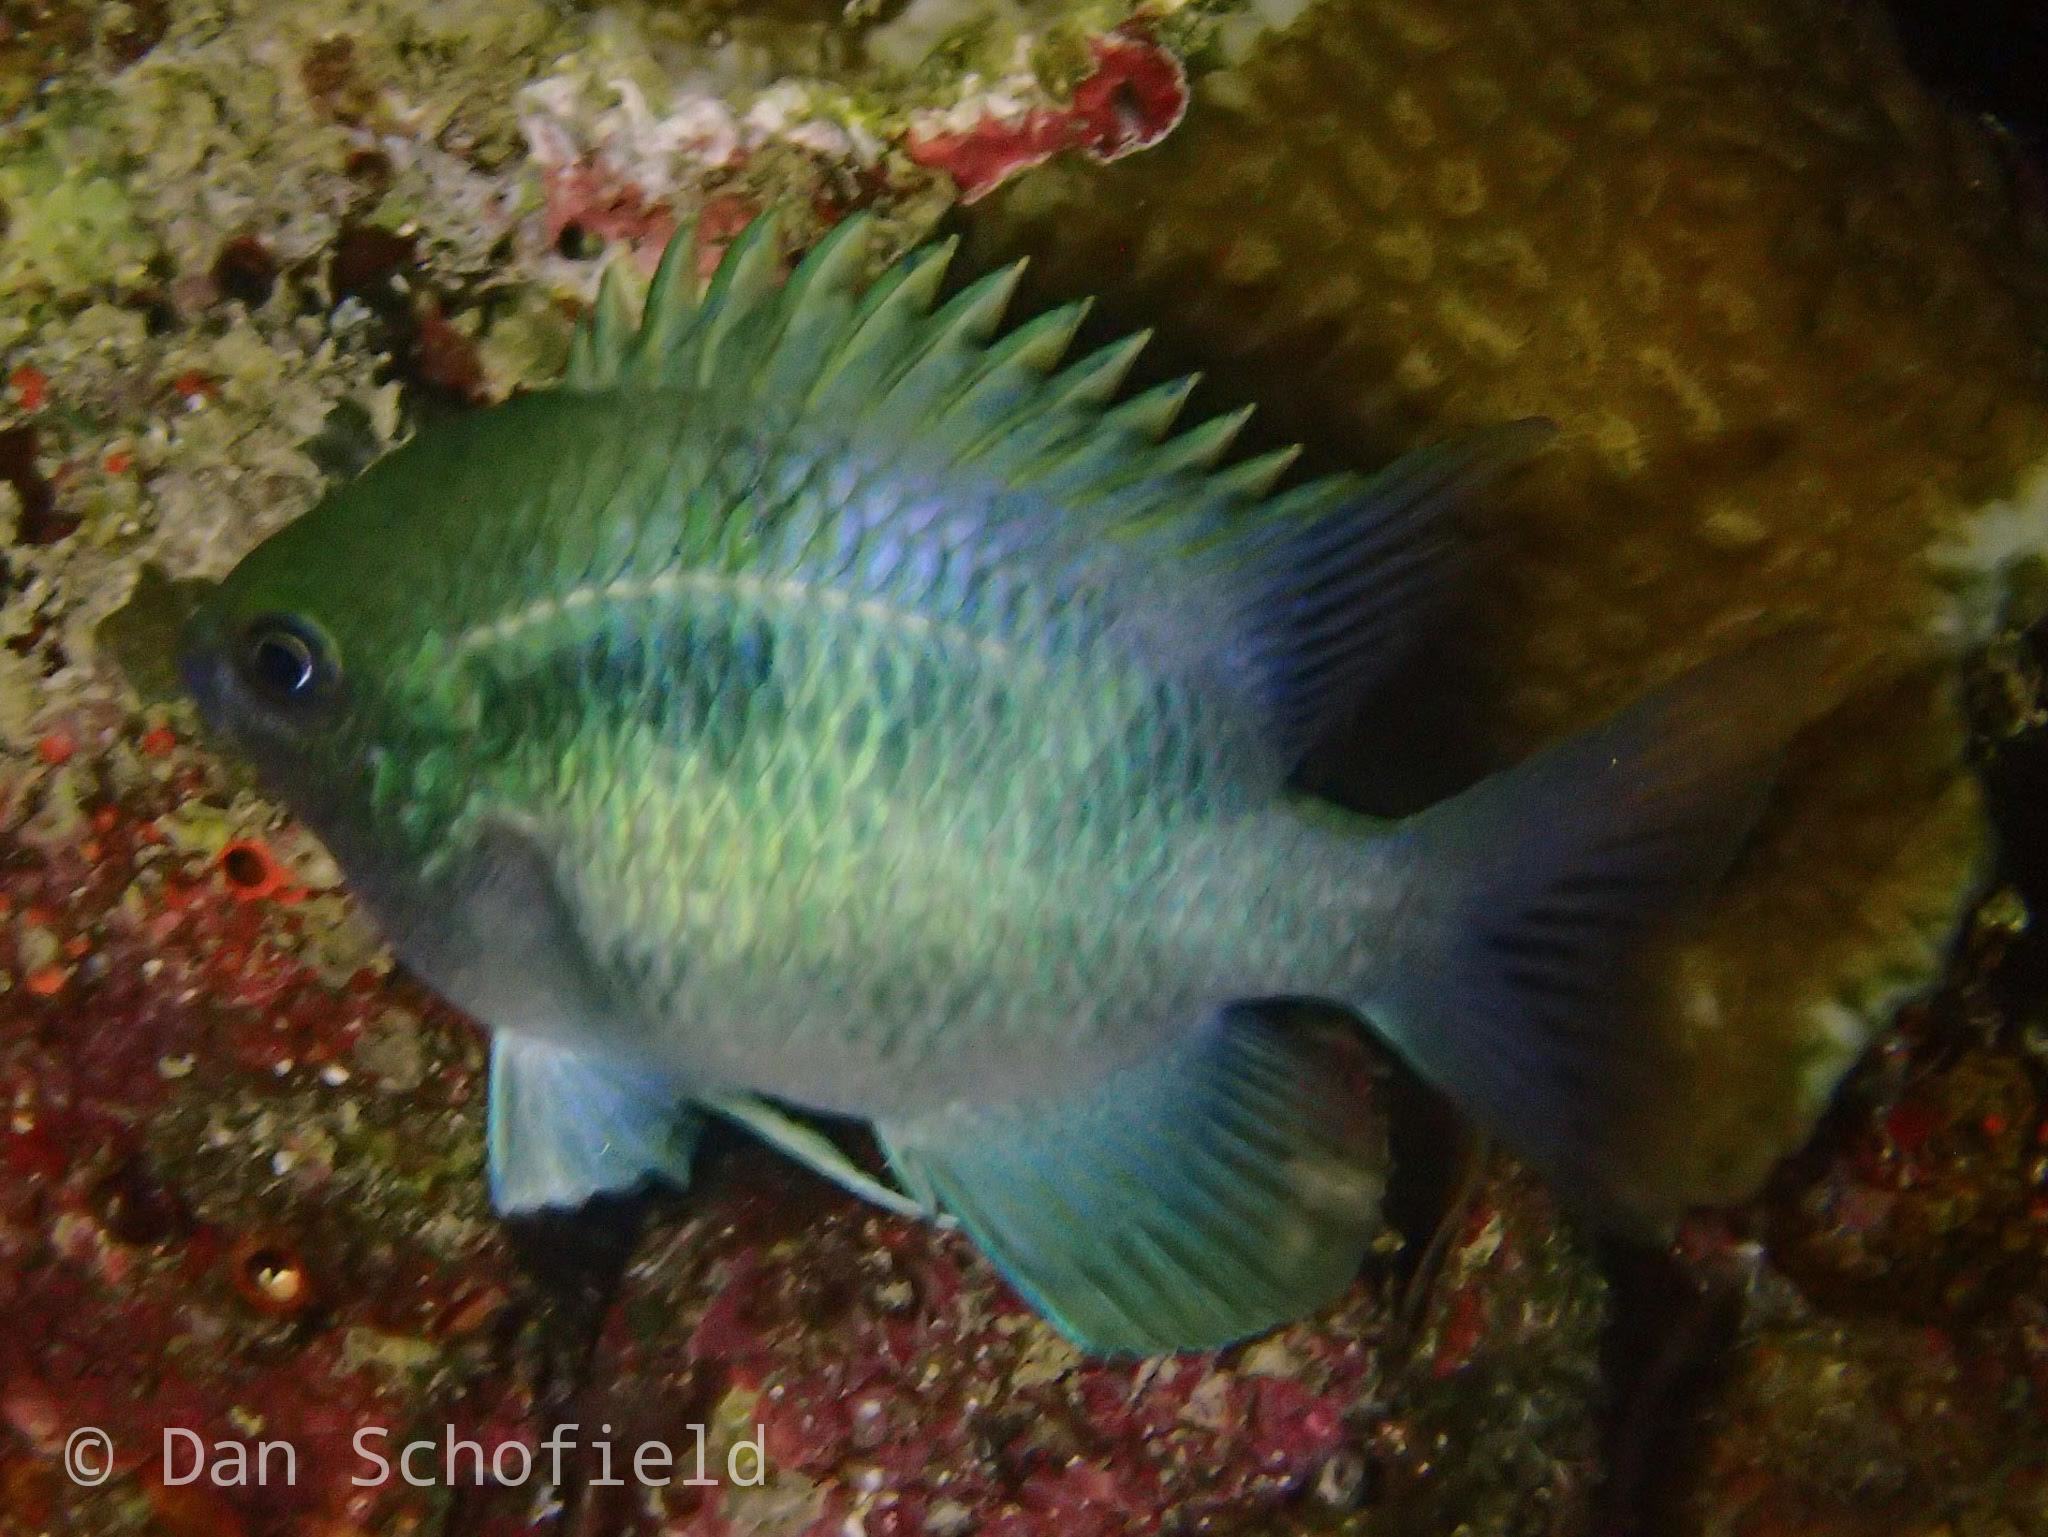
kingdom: Animalia
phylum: Chordata
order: Perciformes
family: Pomacentridae
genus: Amblyglyphidodon
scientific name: Amblyglyphidodon curacao
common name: Staghorn damsel
